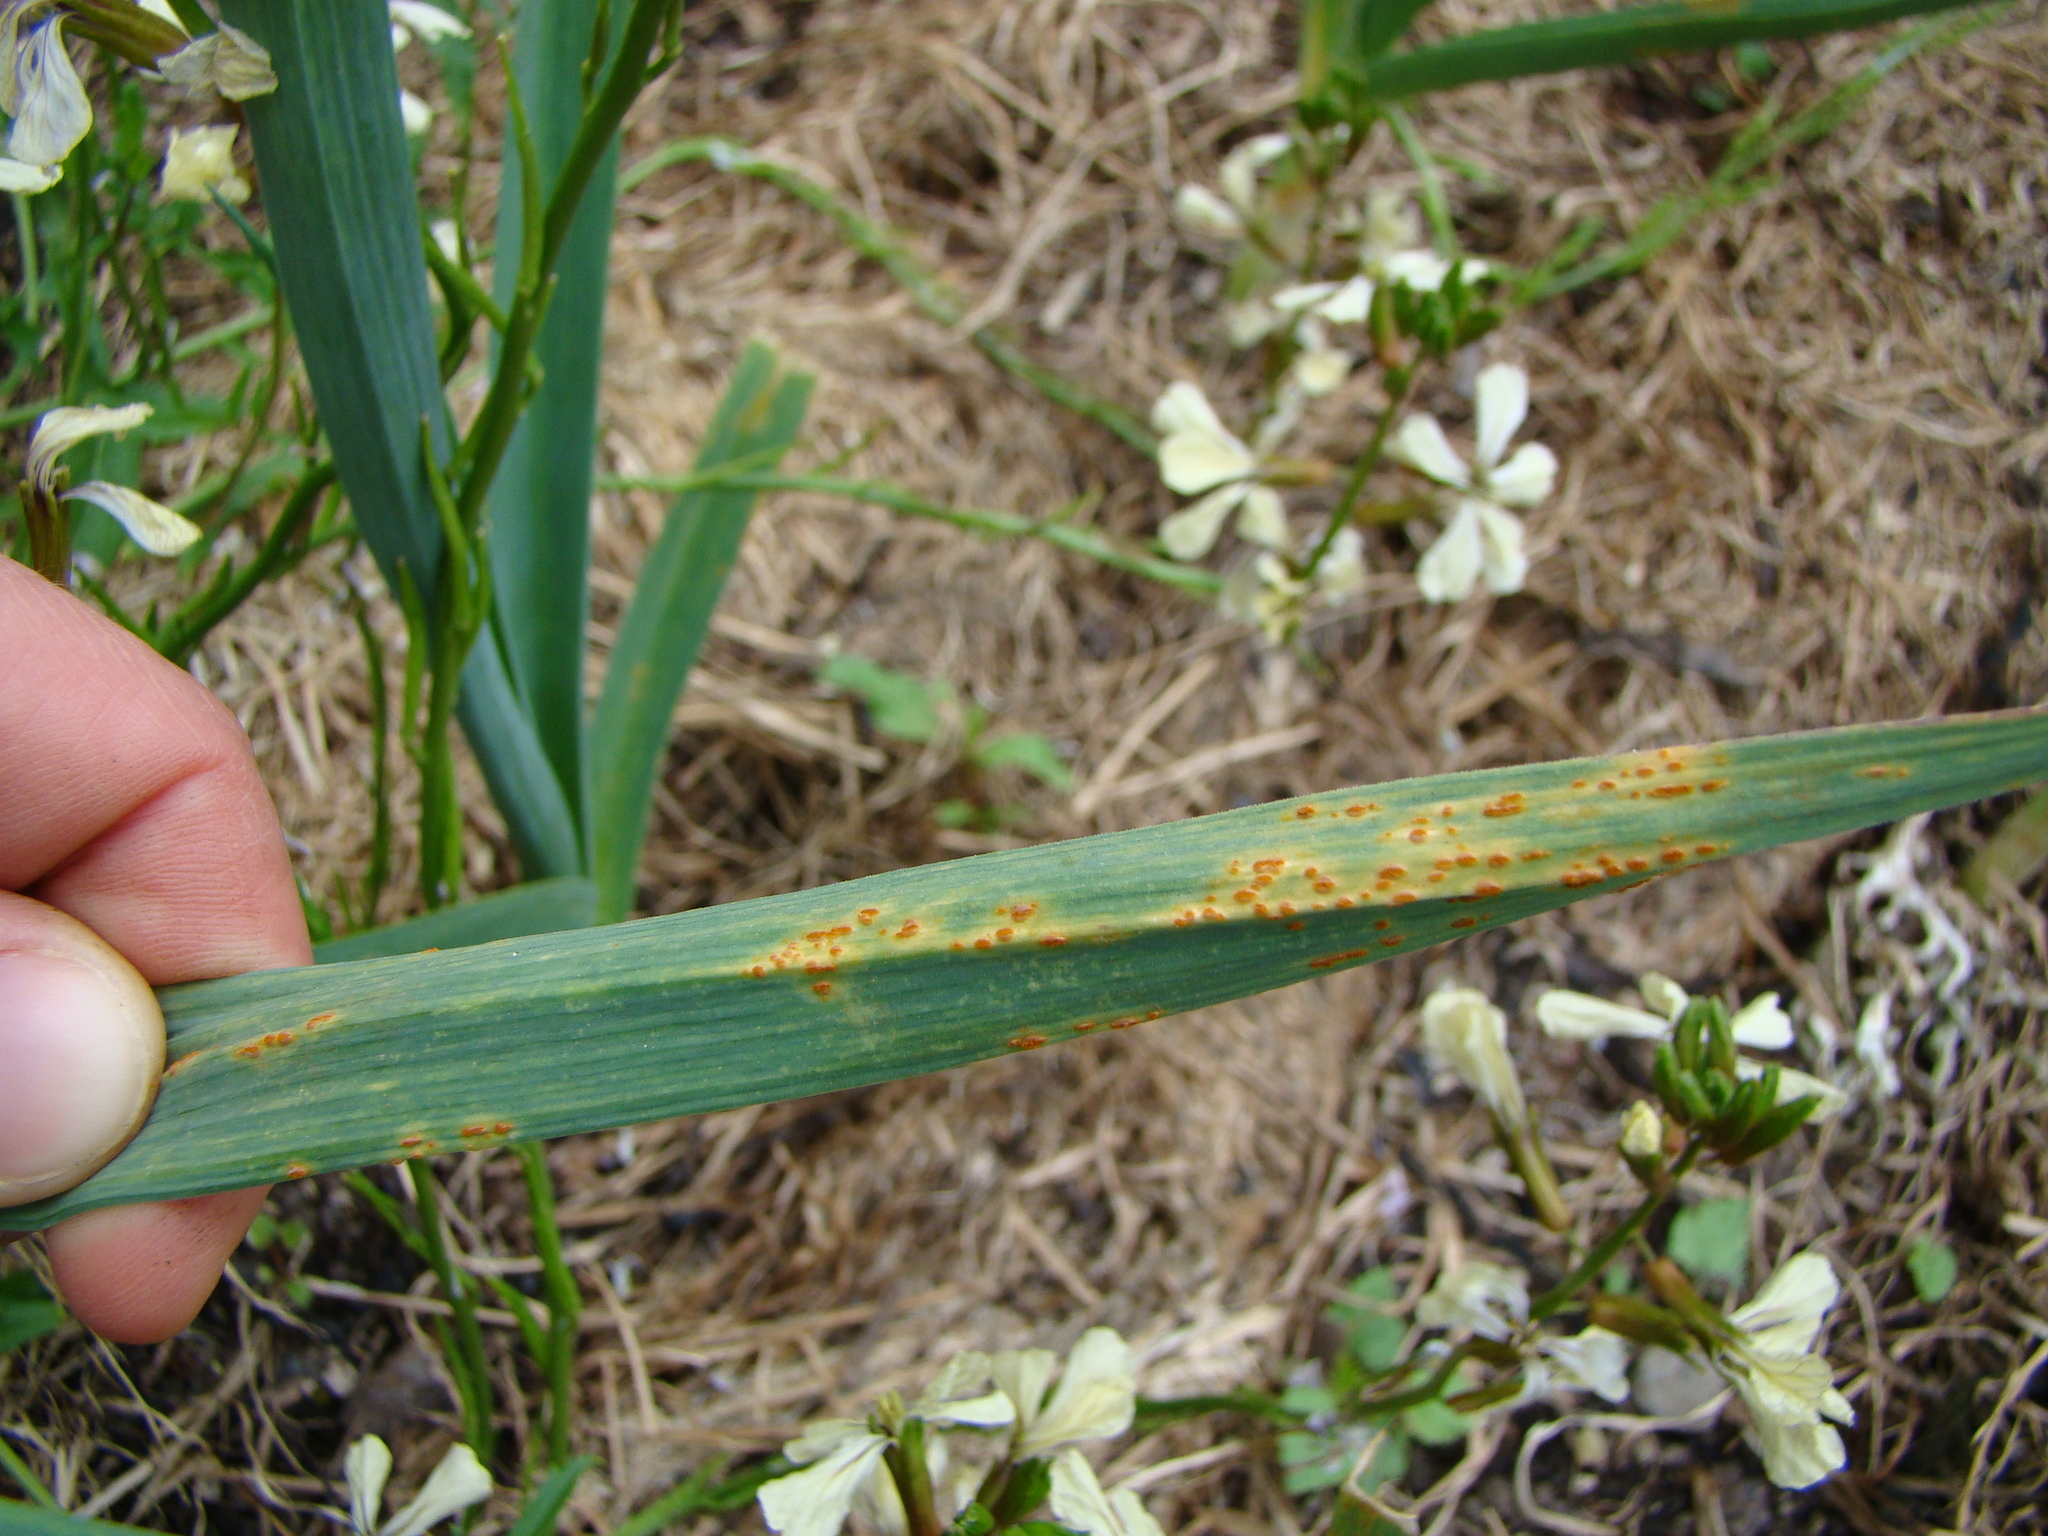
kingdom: Fungi
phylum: Basidiomycota
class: Pucciniomycetes
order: Pucciniales
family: Pucciniaceae
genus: Puccinia
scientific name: Puccinia allii
